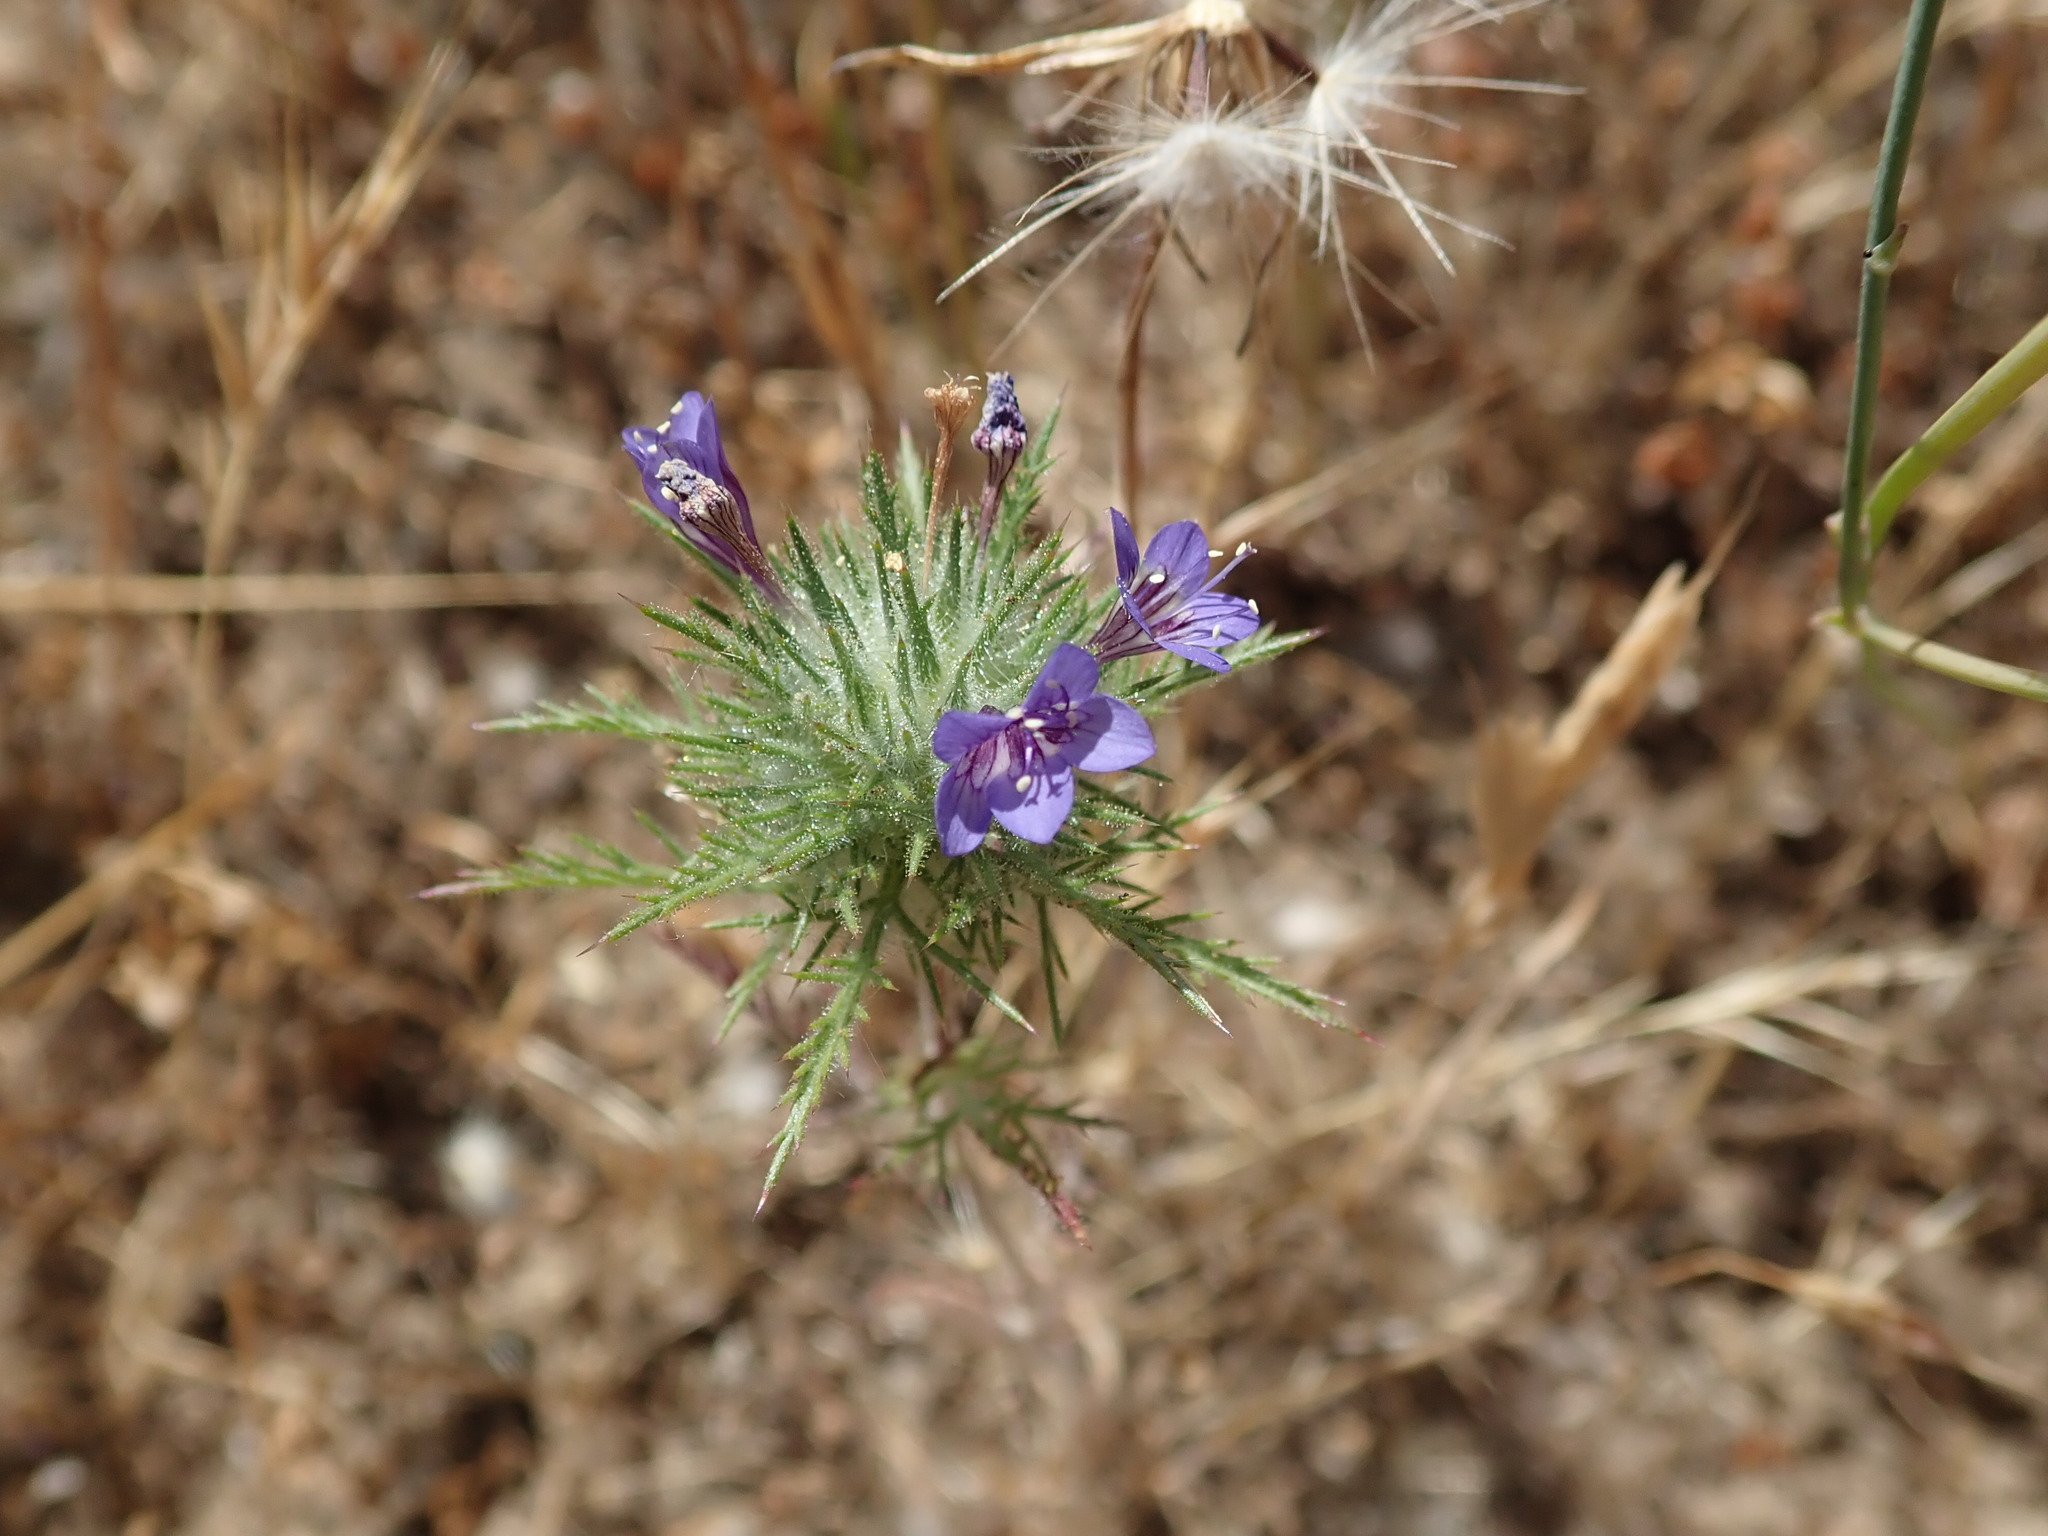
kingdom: Plantae
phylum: Tracheophyta
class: Magnoliopsida
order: Ericales
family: Polemoniaceae
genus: Navarretia
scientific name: Navarretia pubescens
